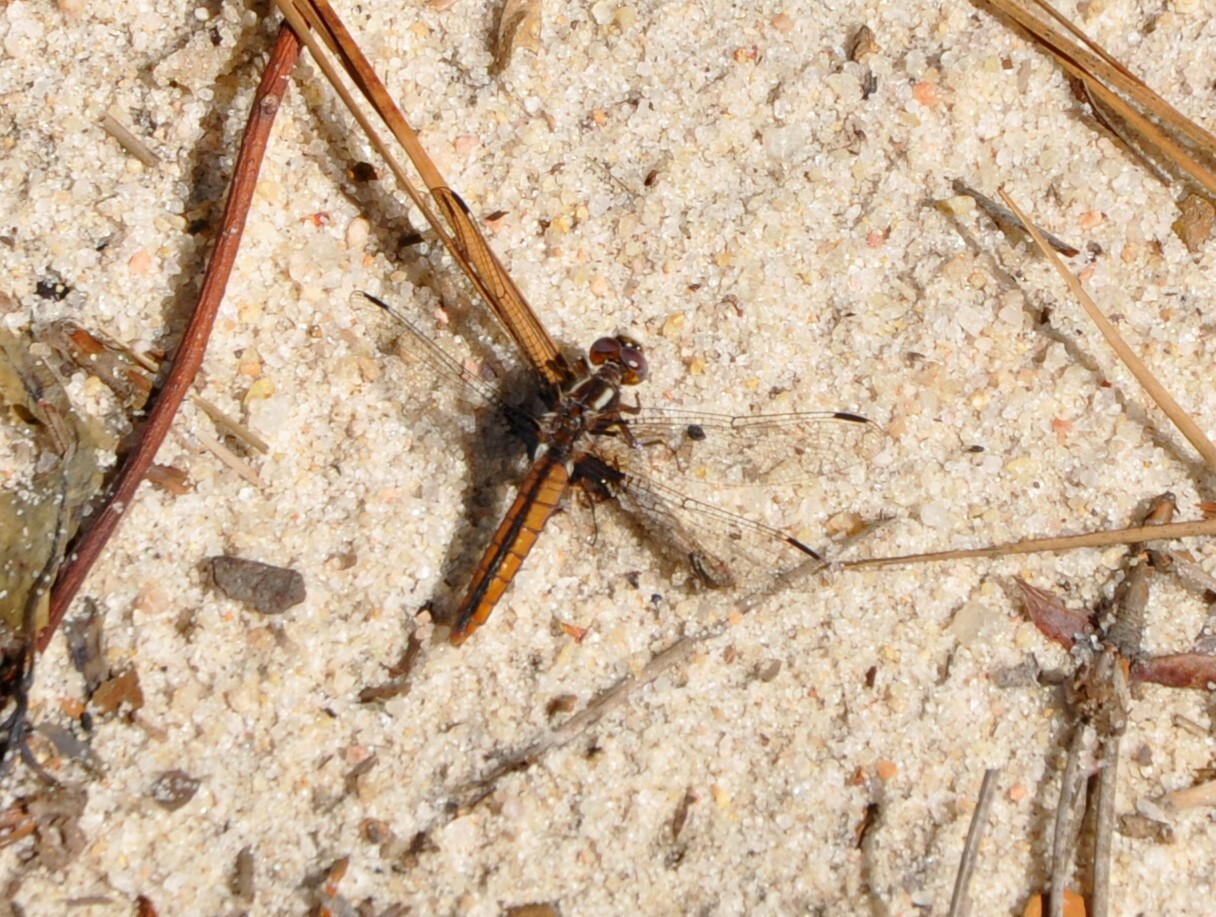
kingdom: Animalia
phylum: Arthropoda
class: Insecta
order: Odonata
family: Libellulidae
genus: Ladona
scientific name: Ladona deplanata
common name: Blue corporal
